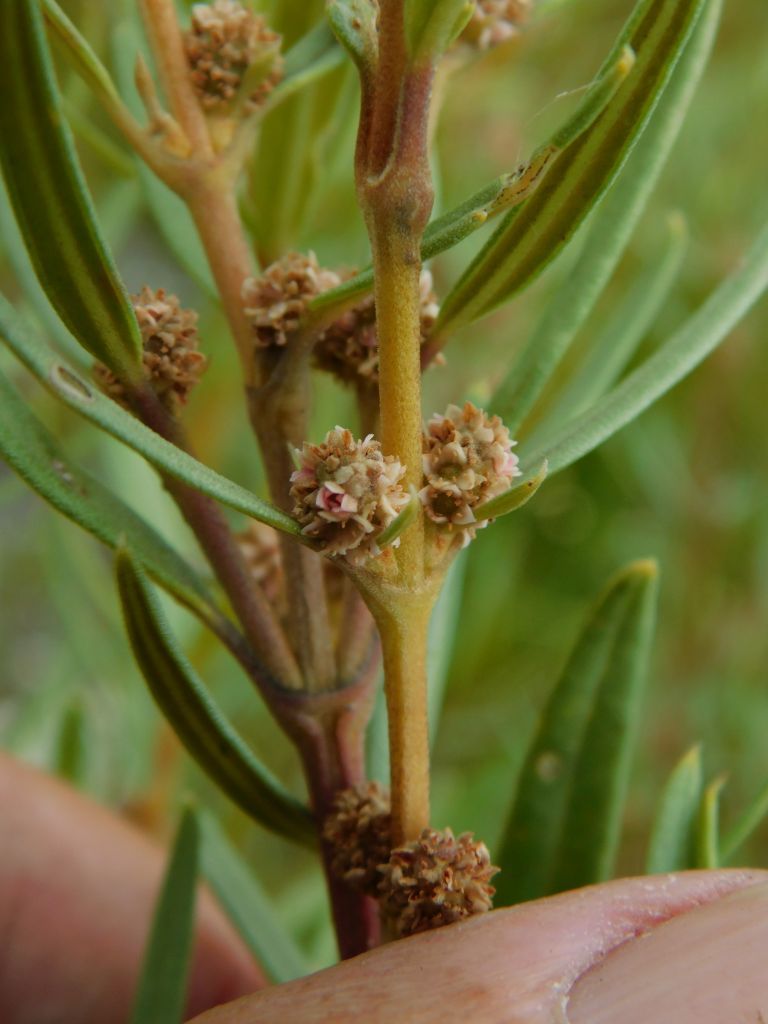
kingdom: Plantae
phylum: Tracheophyta
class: Magnoliopsida
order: Cornales
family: Grubbiaceae
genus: Grubbia
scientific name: Grubbia tomentosa
